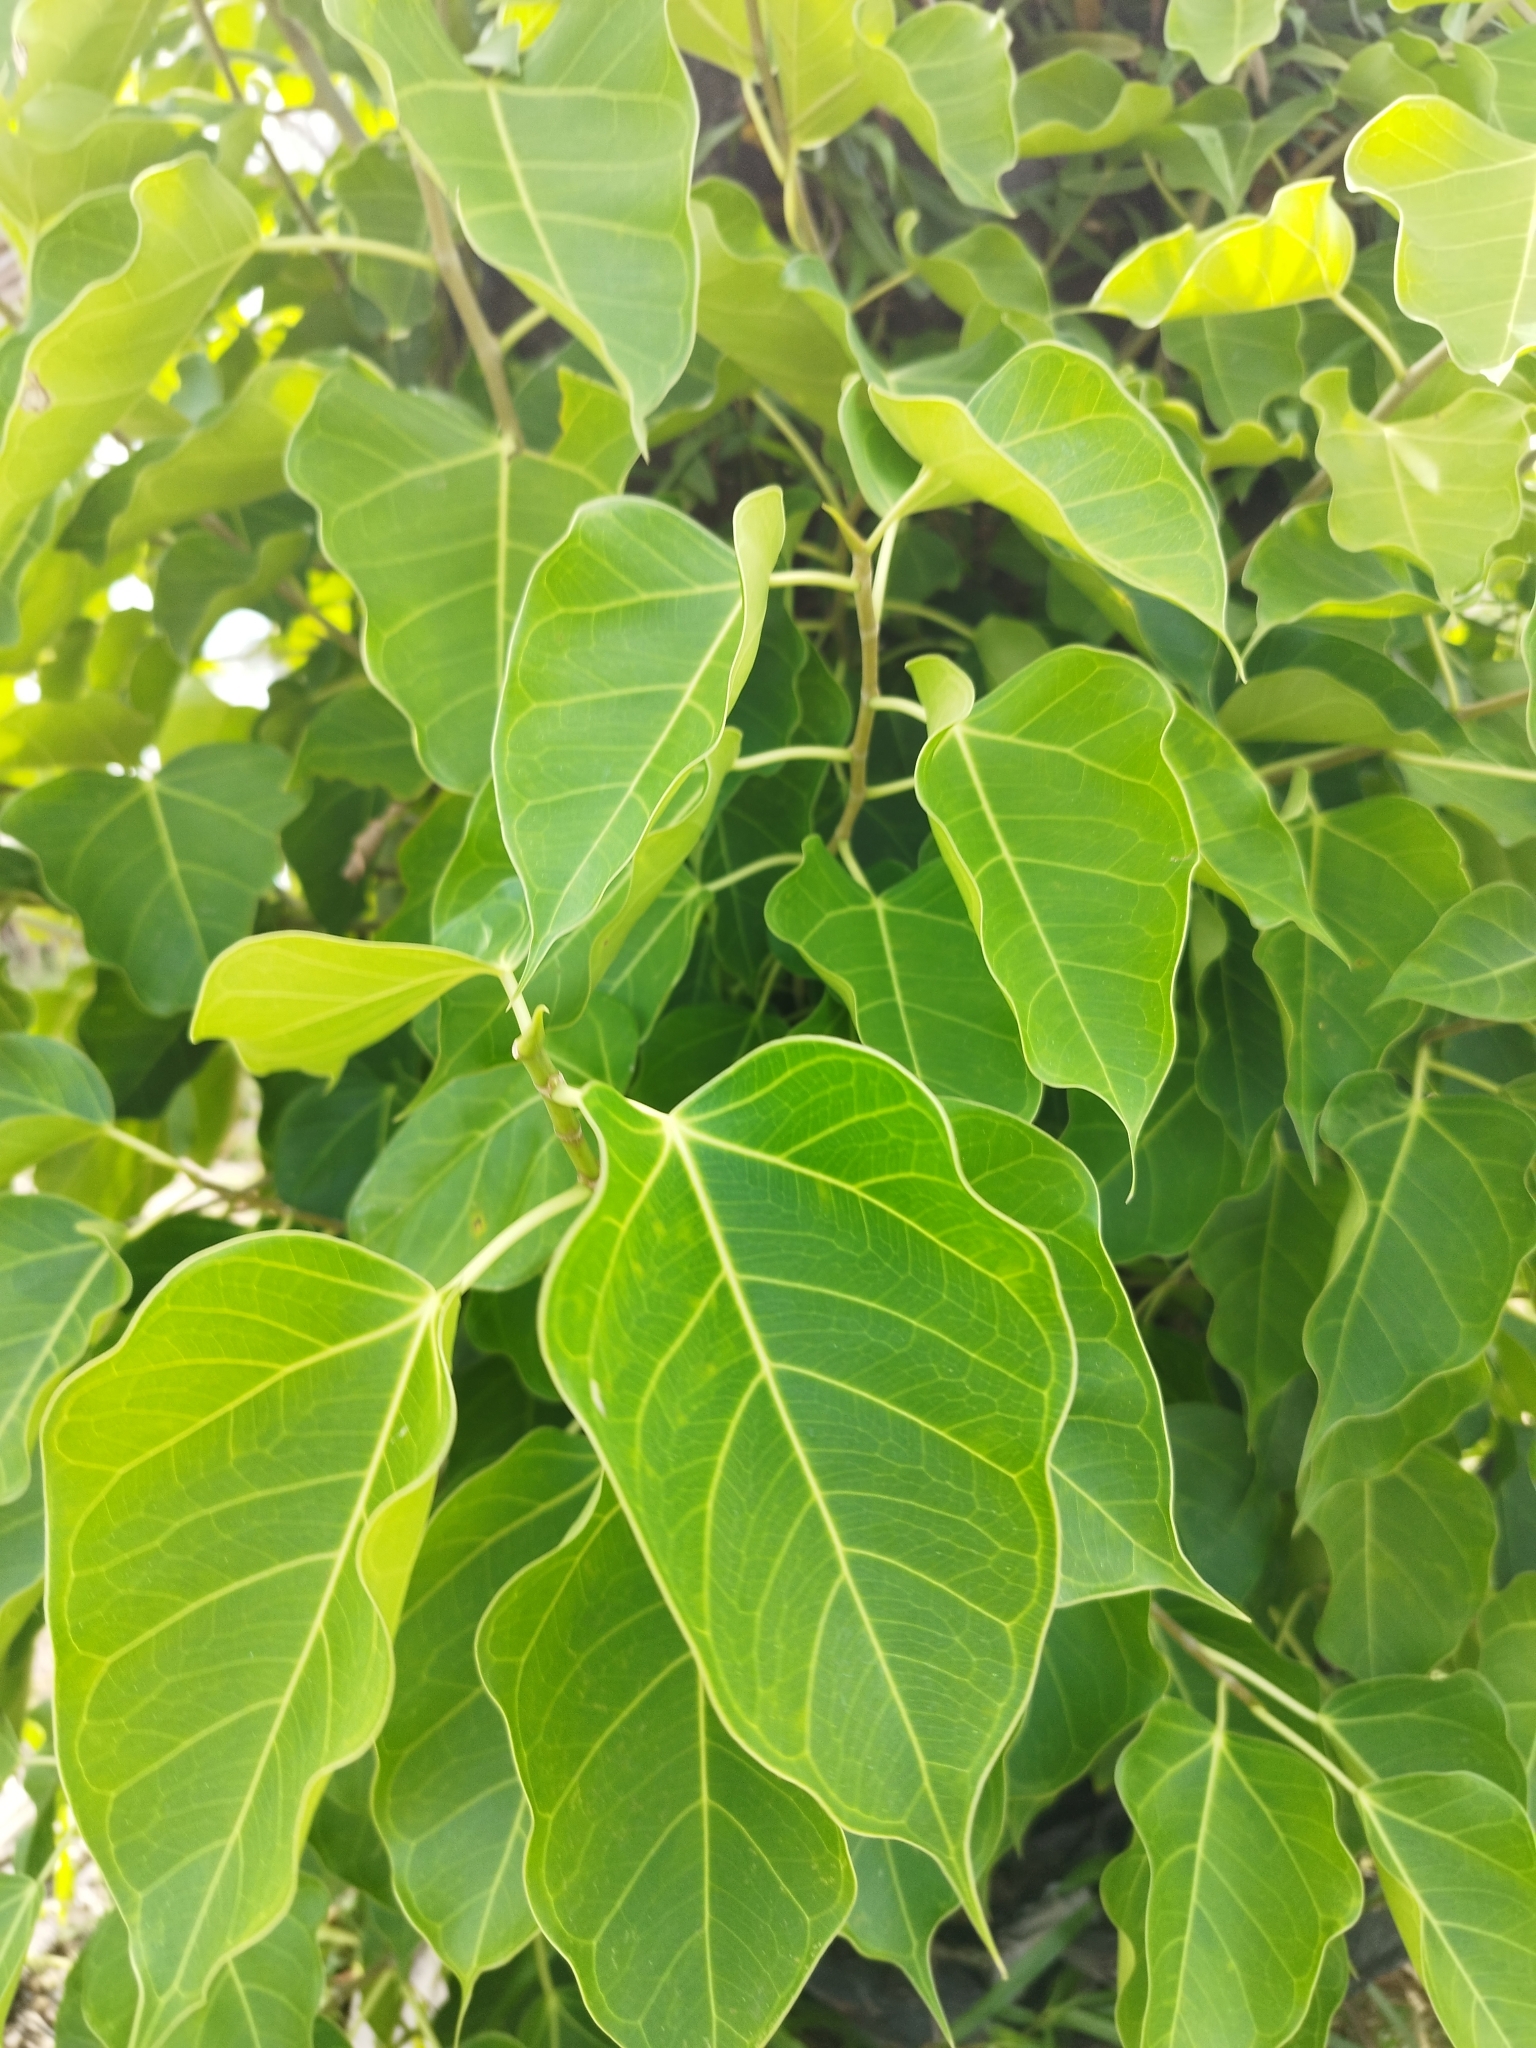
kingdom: Plantae
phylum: Tracheophyta
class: Magnoliopsida
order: Rosales
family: Moraceae
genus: Ficus
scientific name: Ficus rumphii
